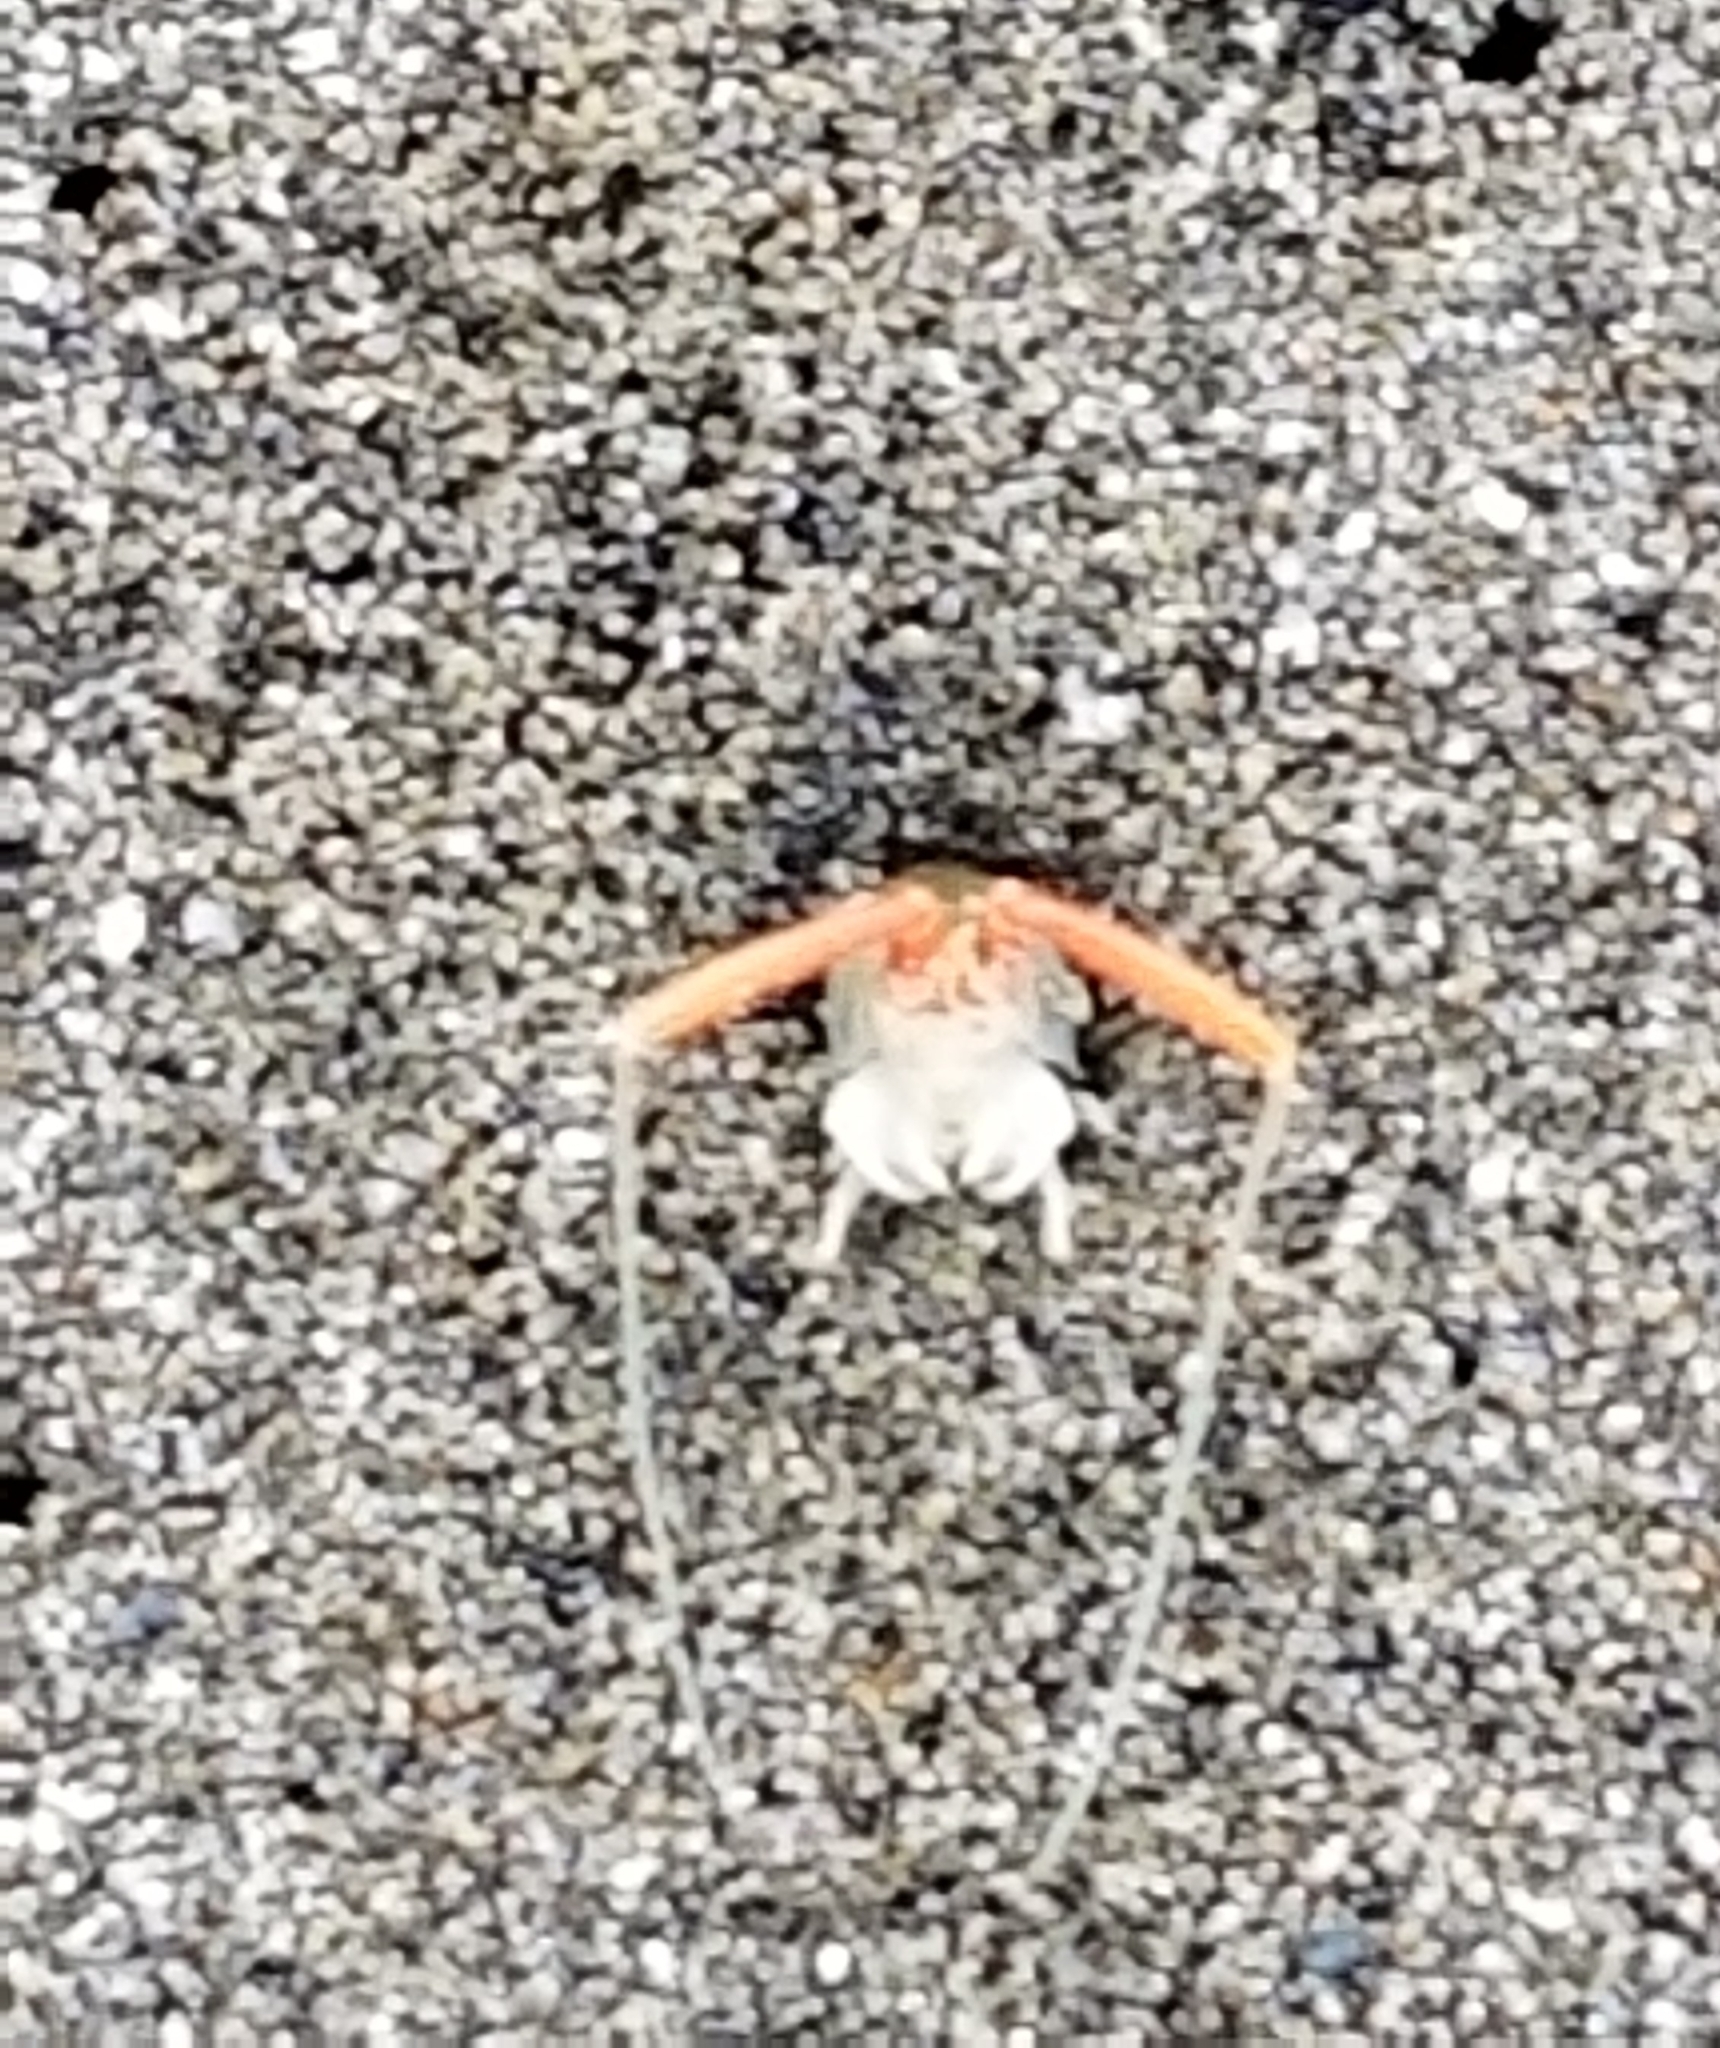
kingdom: Animalia
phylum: Arthropoda
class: Malacostraca
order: Amphipoda
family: Talitridae
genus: Megalorchestia
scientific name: Megalorchestia californiana
